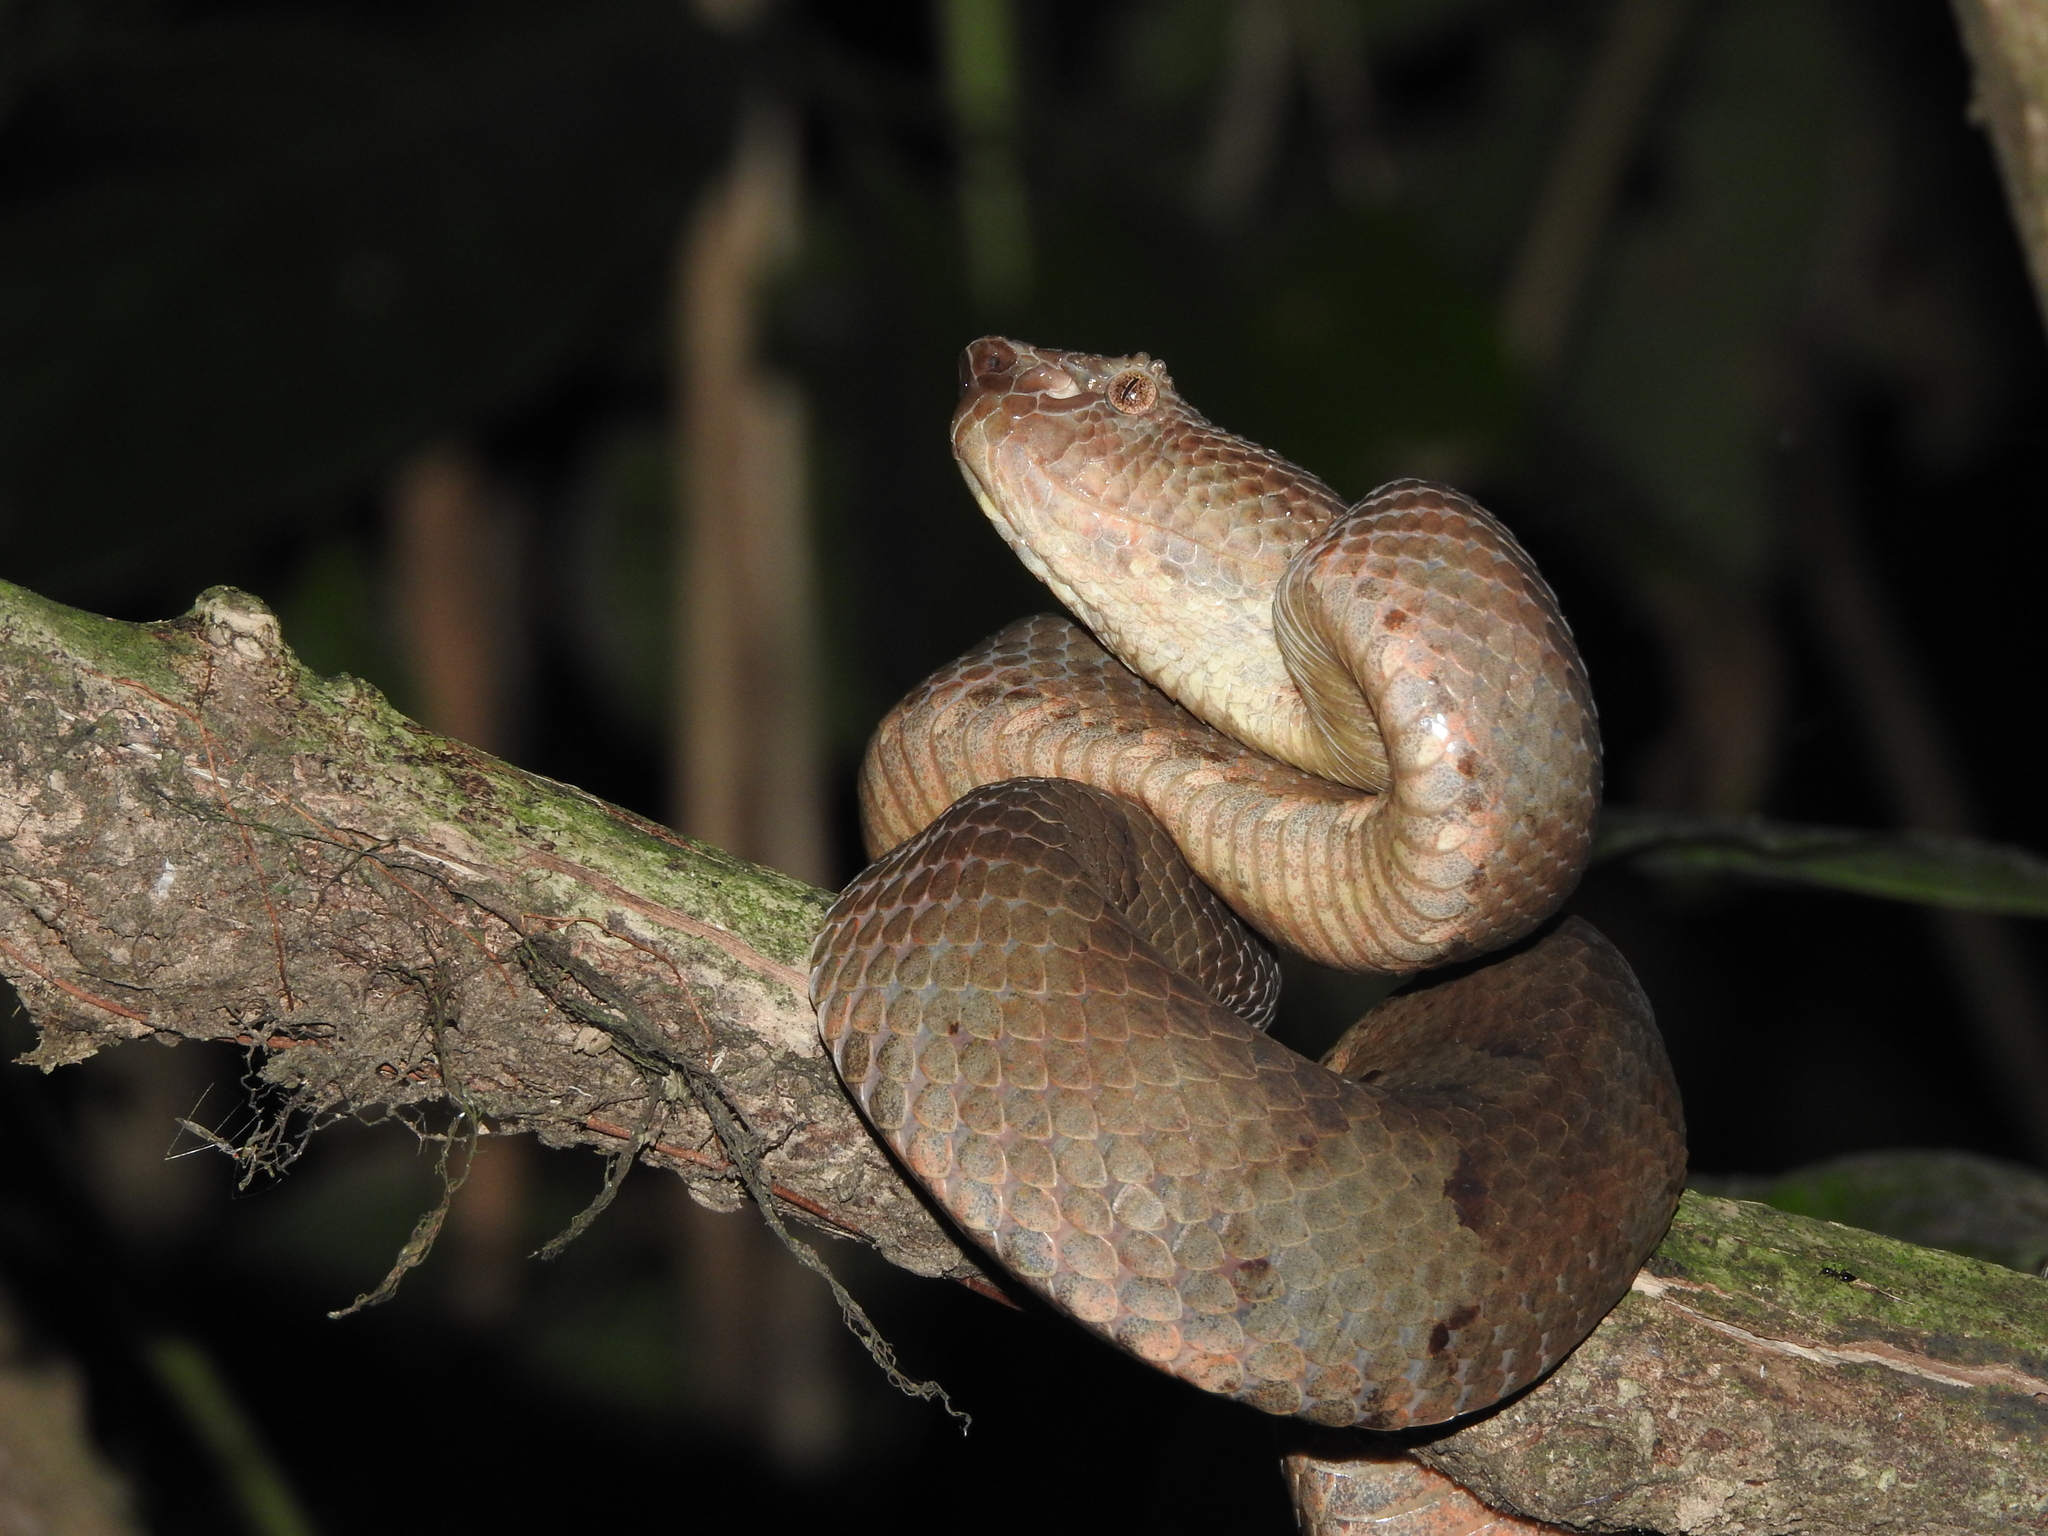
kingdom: Animalia
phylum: Chordata
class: Squamata
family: Viperidae
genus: Craspedocephalus
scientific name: Craspedocephalus puniceus
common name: Ashy pit viper
